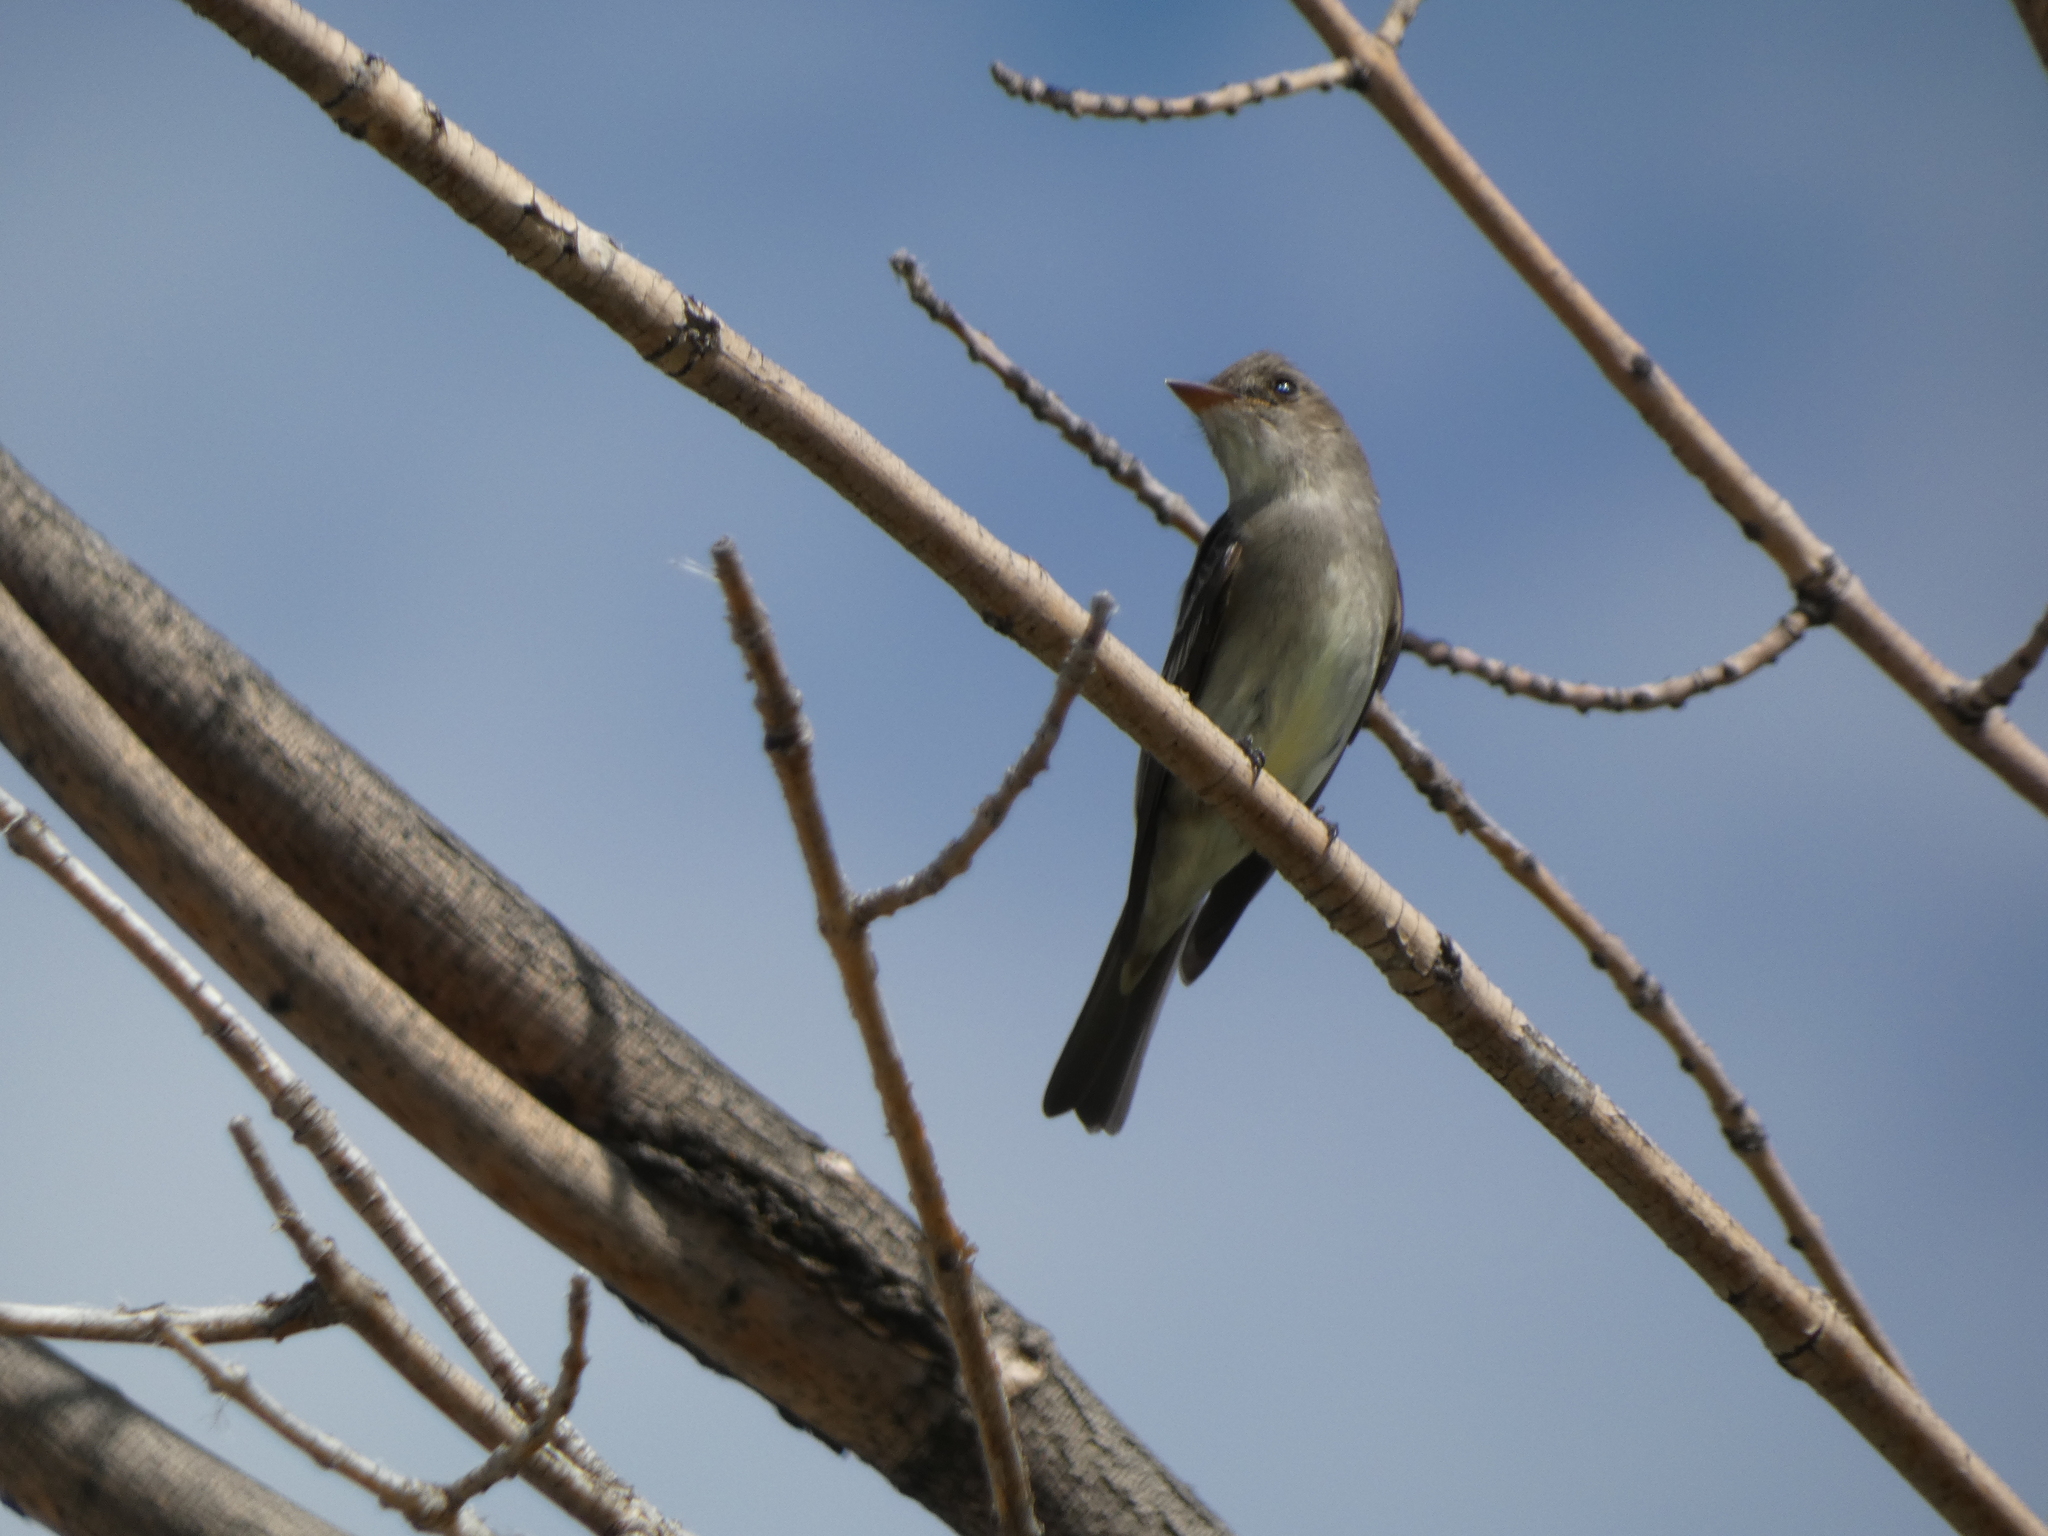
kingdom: Animalia
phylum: Chordata
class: Aves
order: Passeriformes
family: Tyrannidae
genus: Contopus
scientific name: Contopus sordidulus
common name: Western wood-pewee
